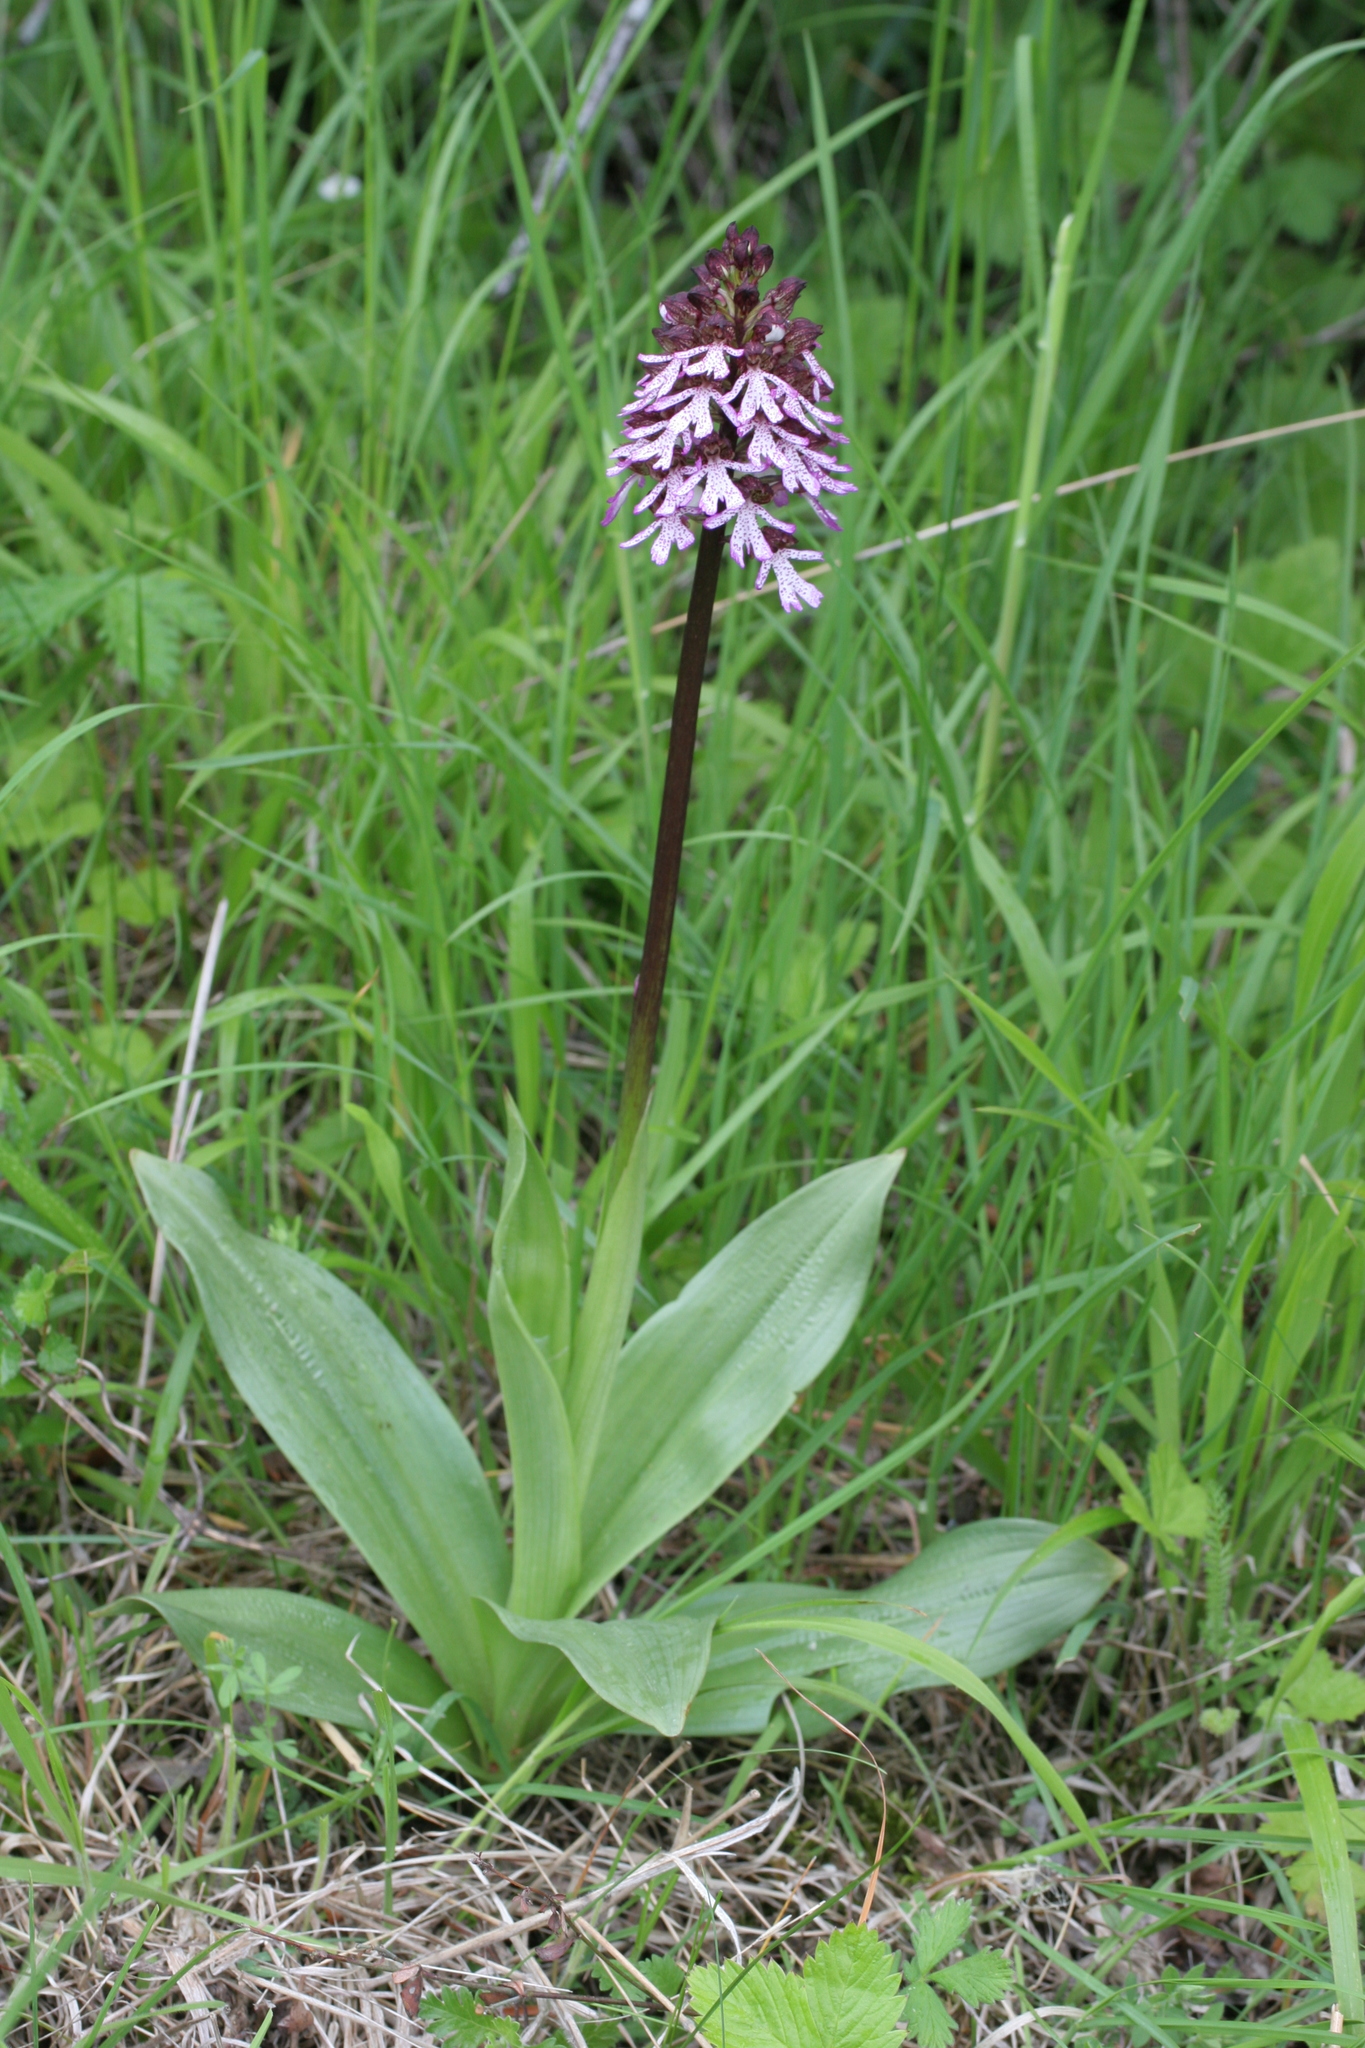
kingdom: Plantae
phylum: Tracheophyta
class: Liliopsida
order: Asparagales
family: Orchidaceae
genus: Orchis
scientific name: Orchis purpurea
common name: Lady orchid
